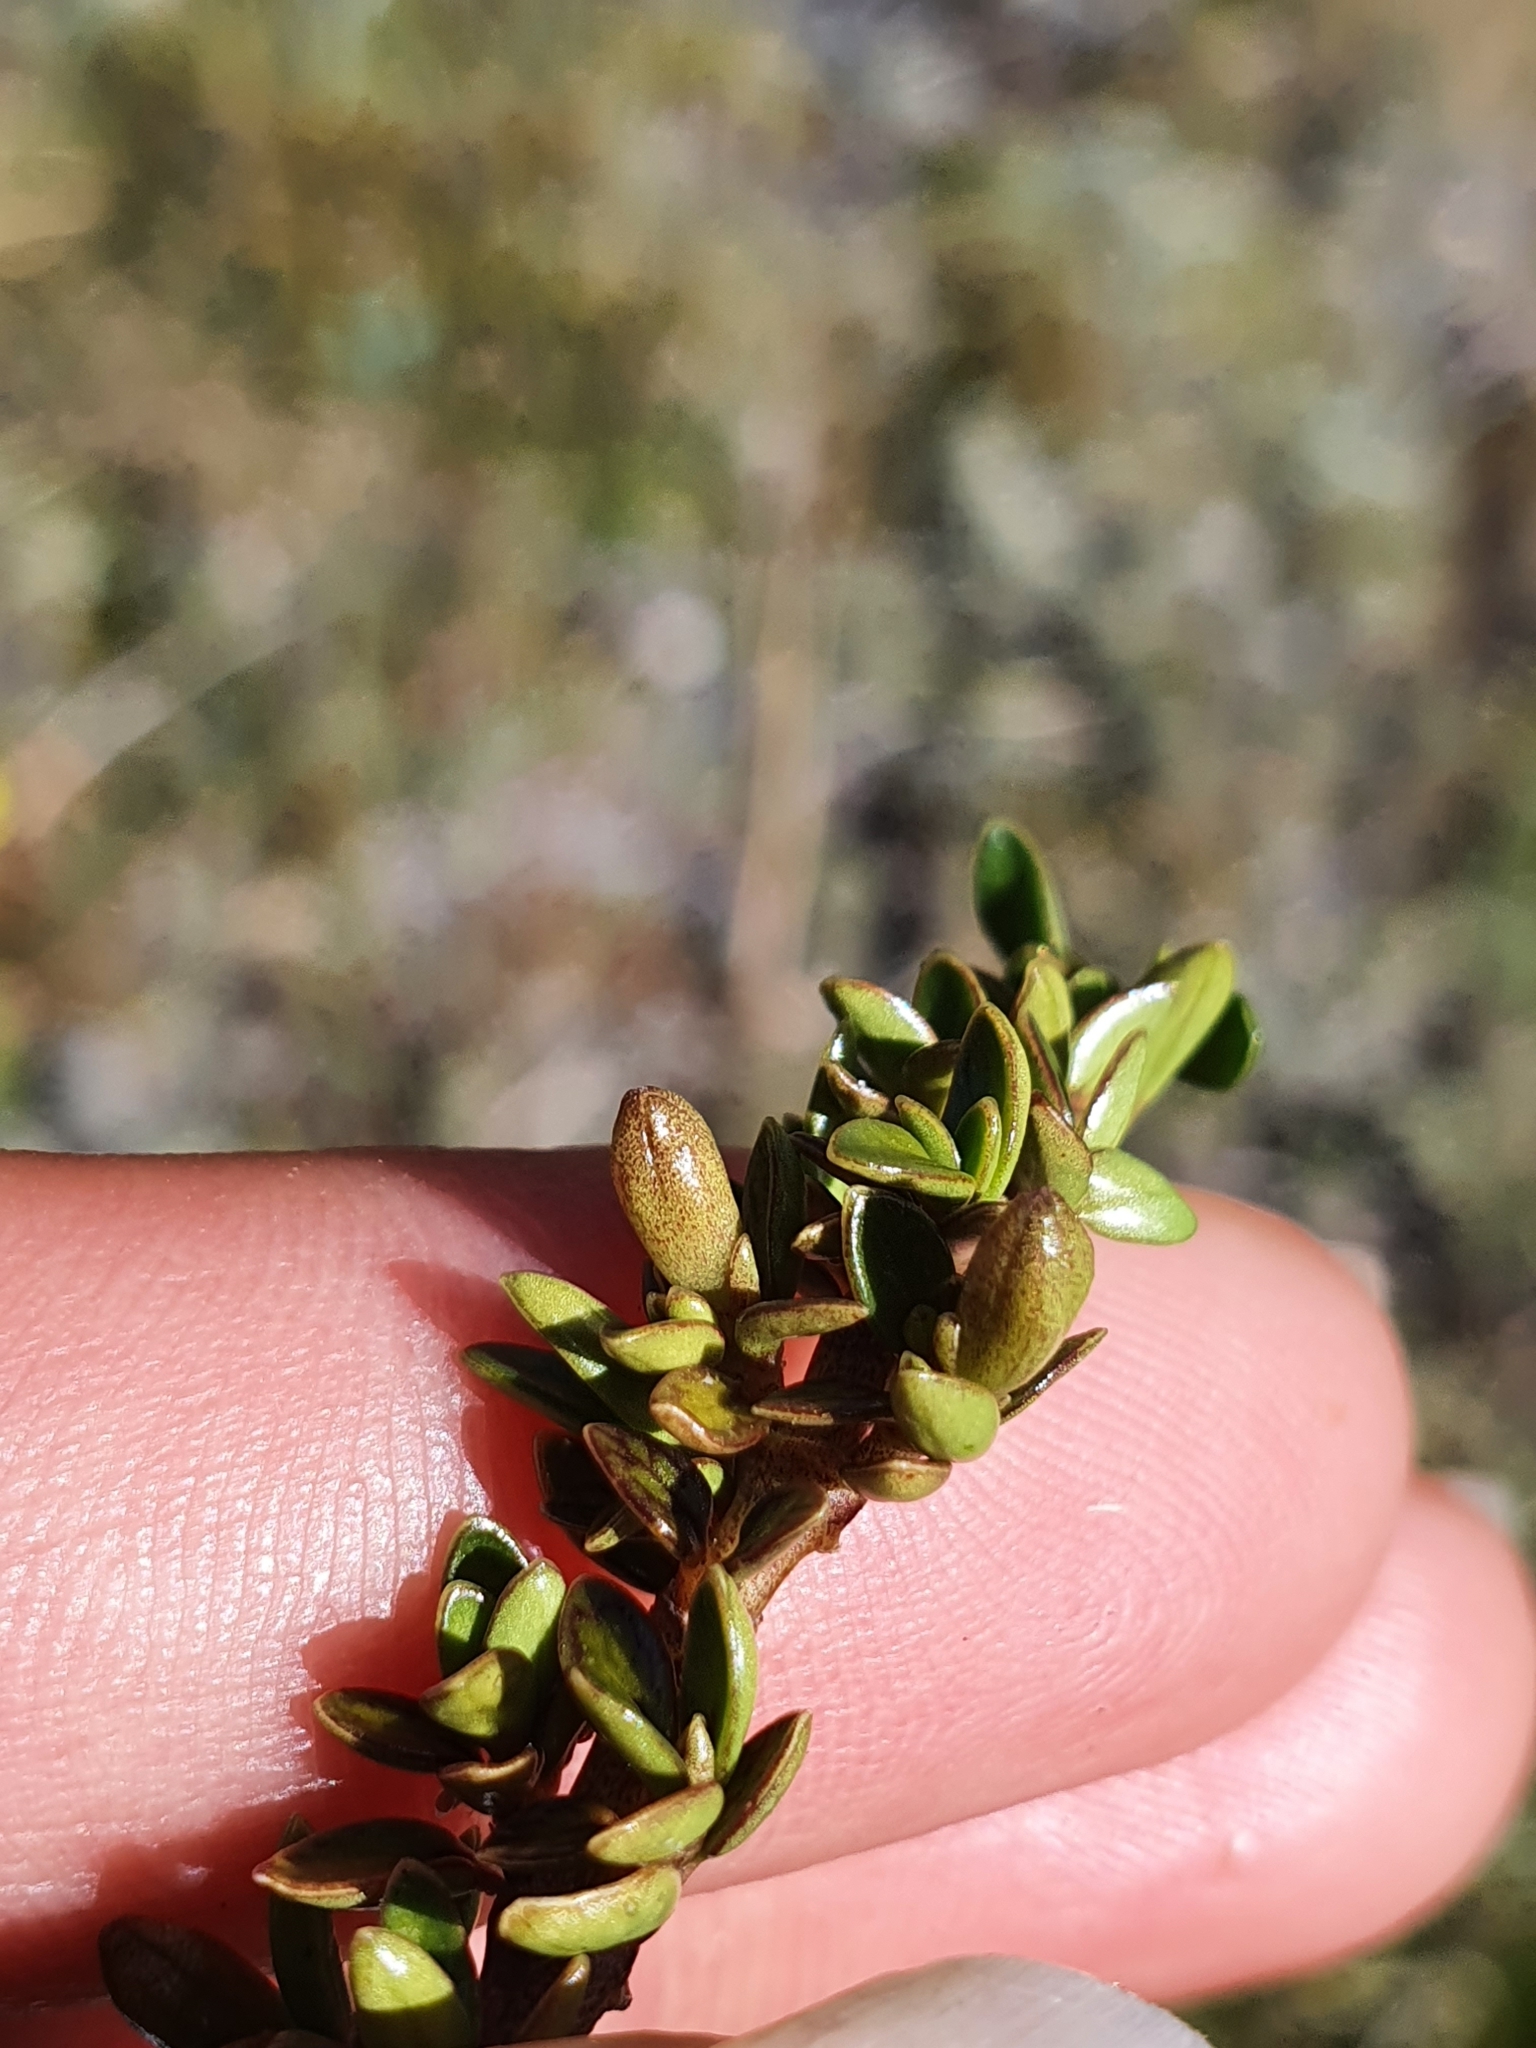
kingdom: Plantae
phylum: Tracheophyta
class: Magnoliopsida
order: Gentianales
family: Rubiaceae
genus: Coprosma
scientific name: Coprosma perpusilla
